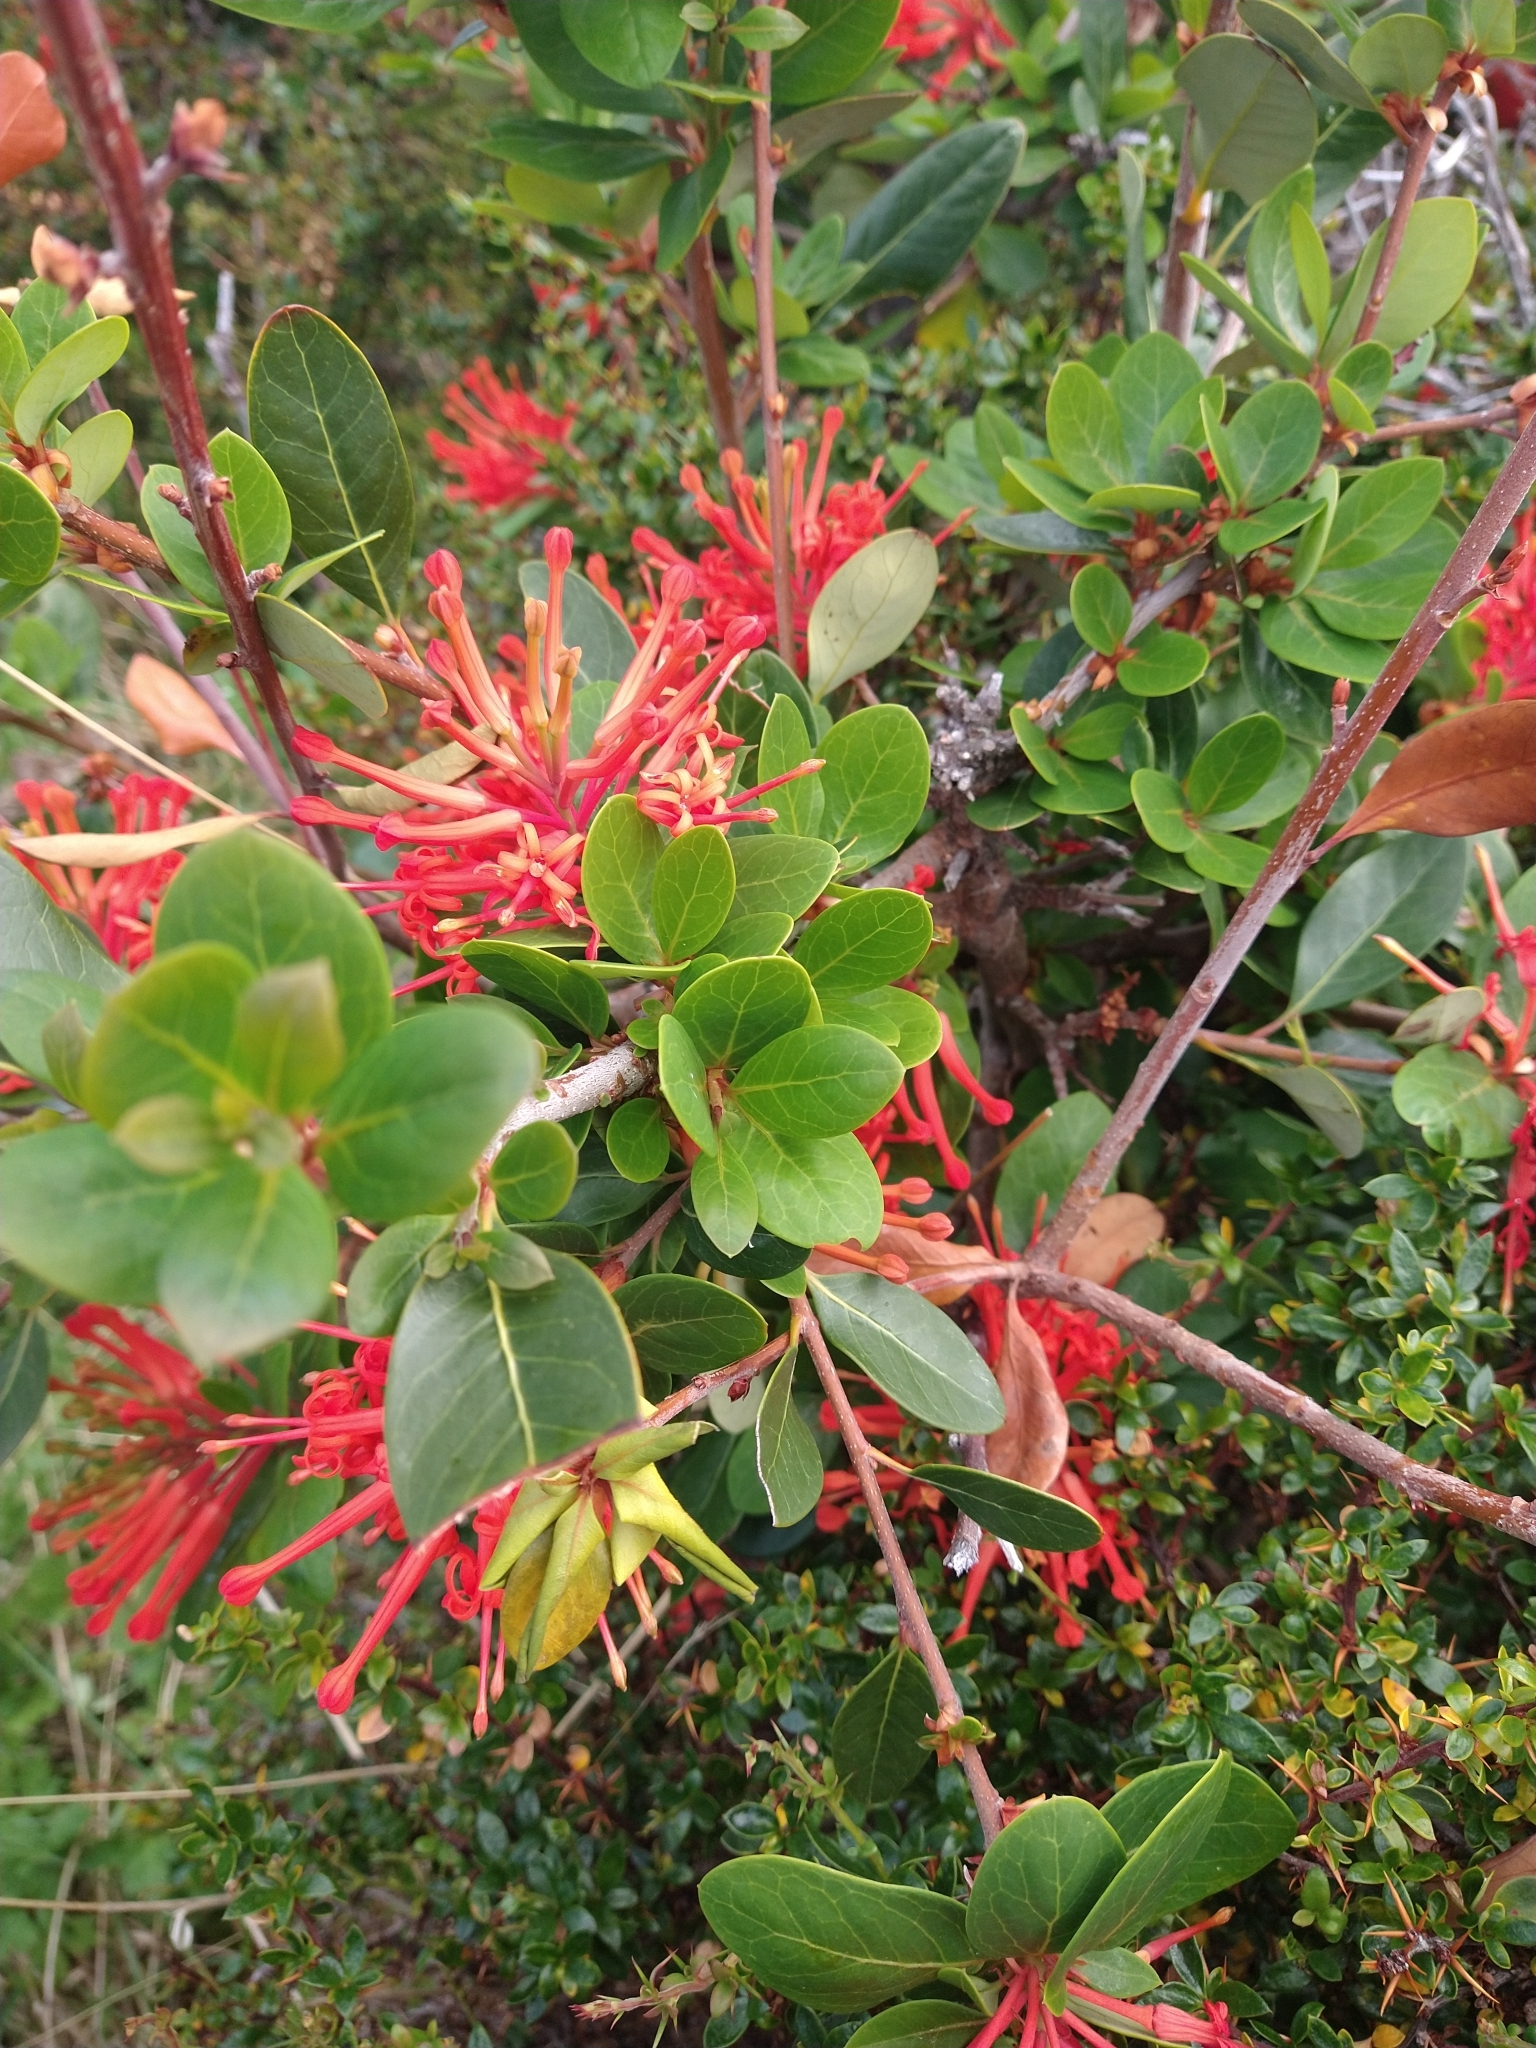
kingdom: Plantae
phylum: Tracheophyta
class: Magnoliopsida
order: Proteales
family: Proteaceae
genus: Embothrium
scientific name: Embothrium coccineum
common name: Chilean firebush
